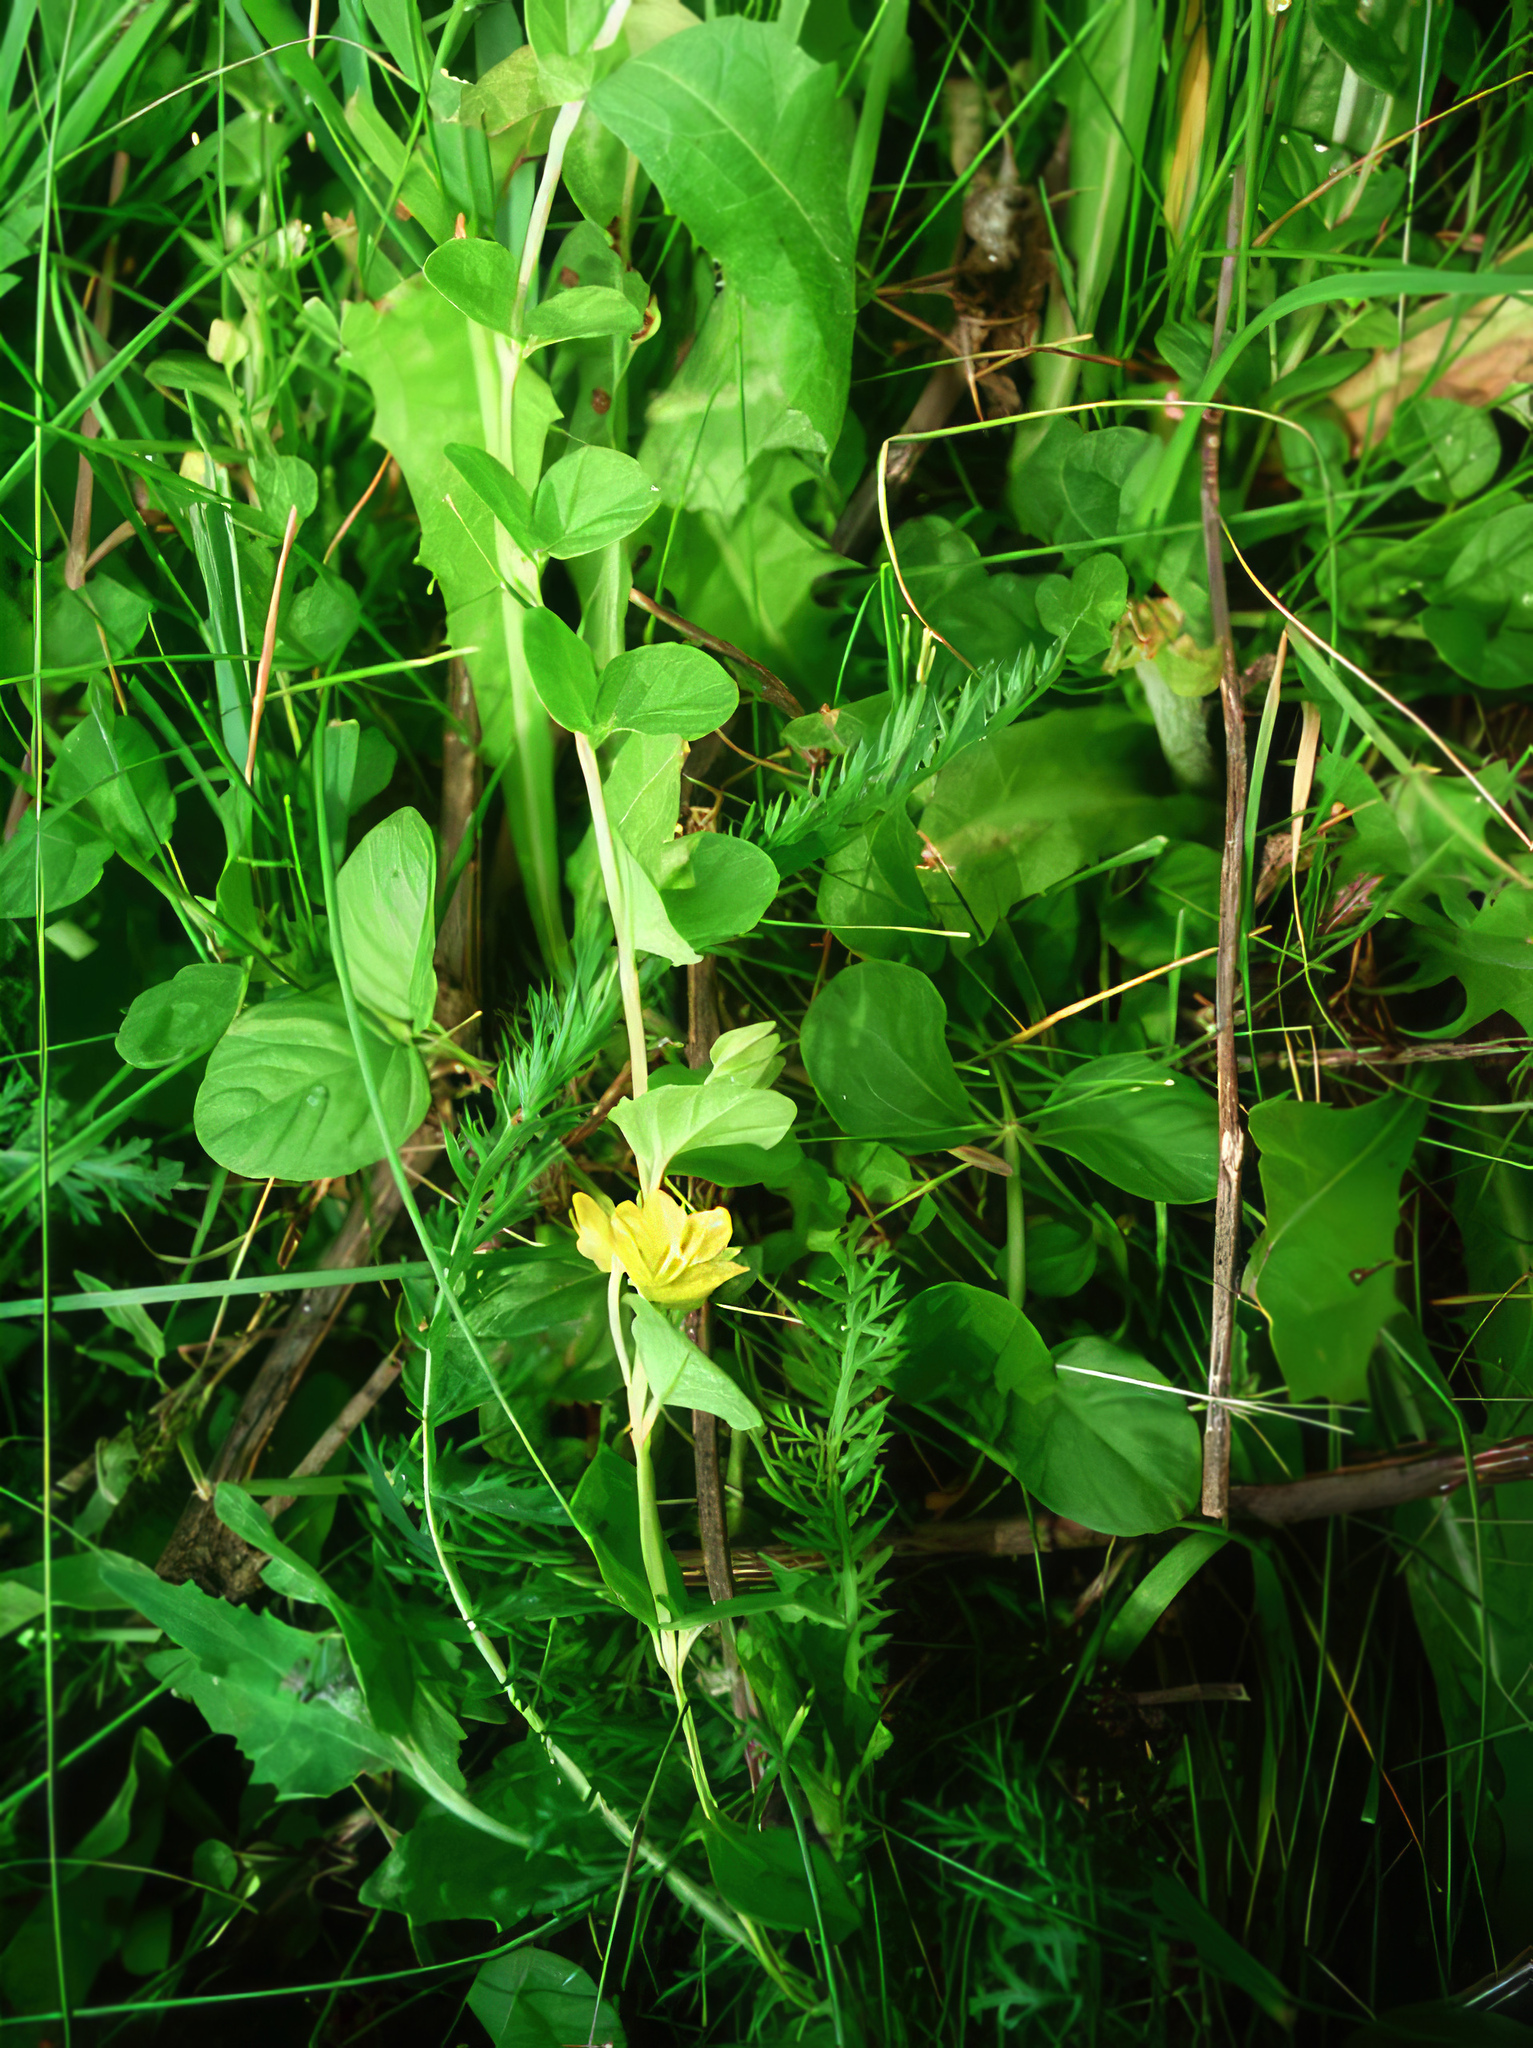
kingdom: Plantae
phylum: Tracheophyta
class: Magnoliopsida
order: Ericales
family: Primulaceae
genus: Lysimachia
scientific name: Lysimachia nummularia
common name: Moneywort
